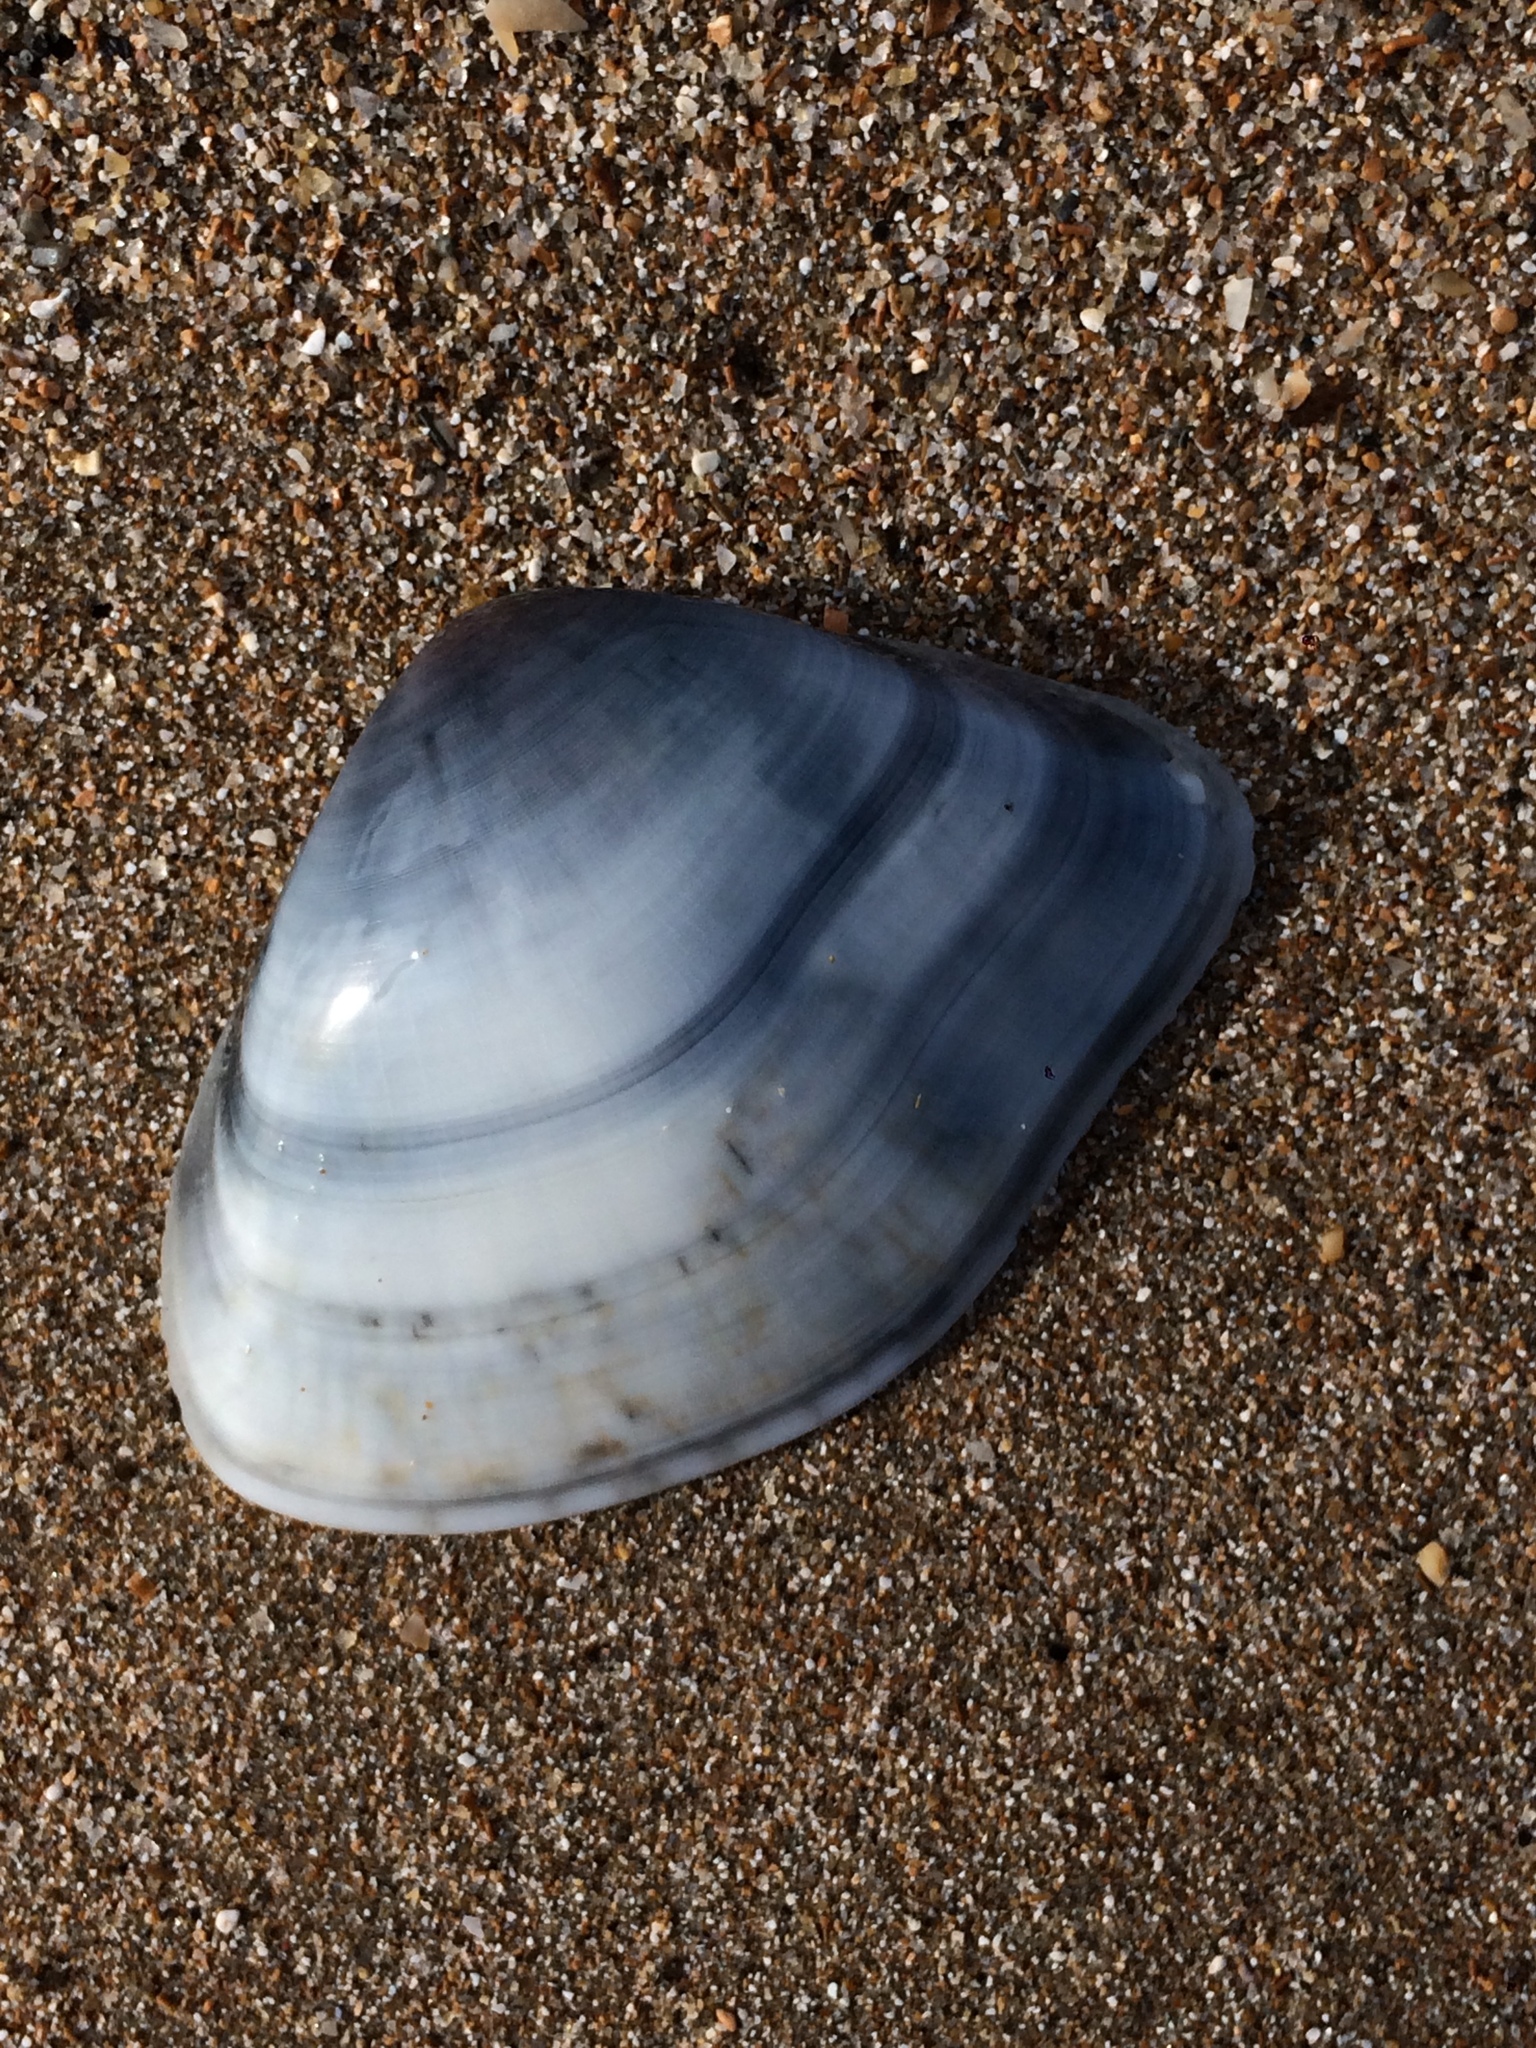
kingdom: Animalia
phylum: Mollusca
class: Bivalvia
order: Cardiida
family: Donacidae
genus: Iphigenia
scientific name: Iphigenia brasiliensis
